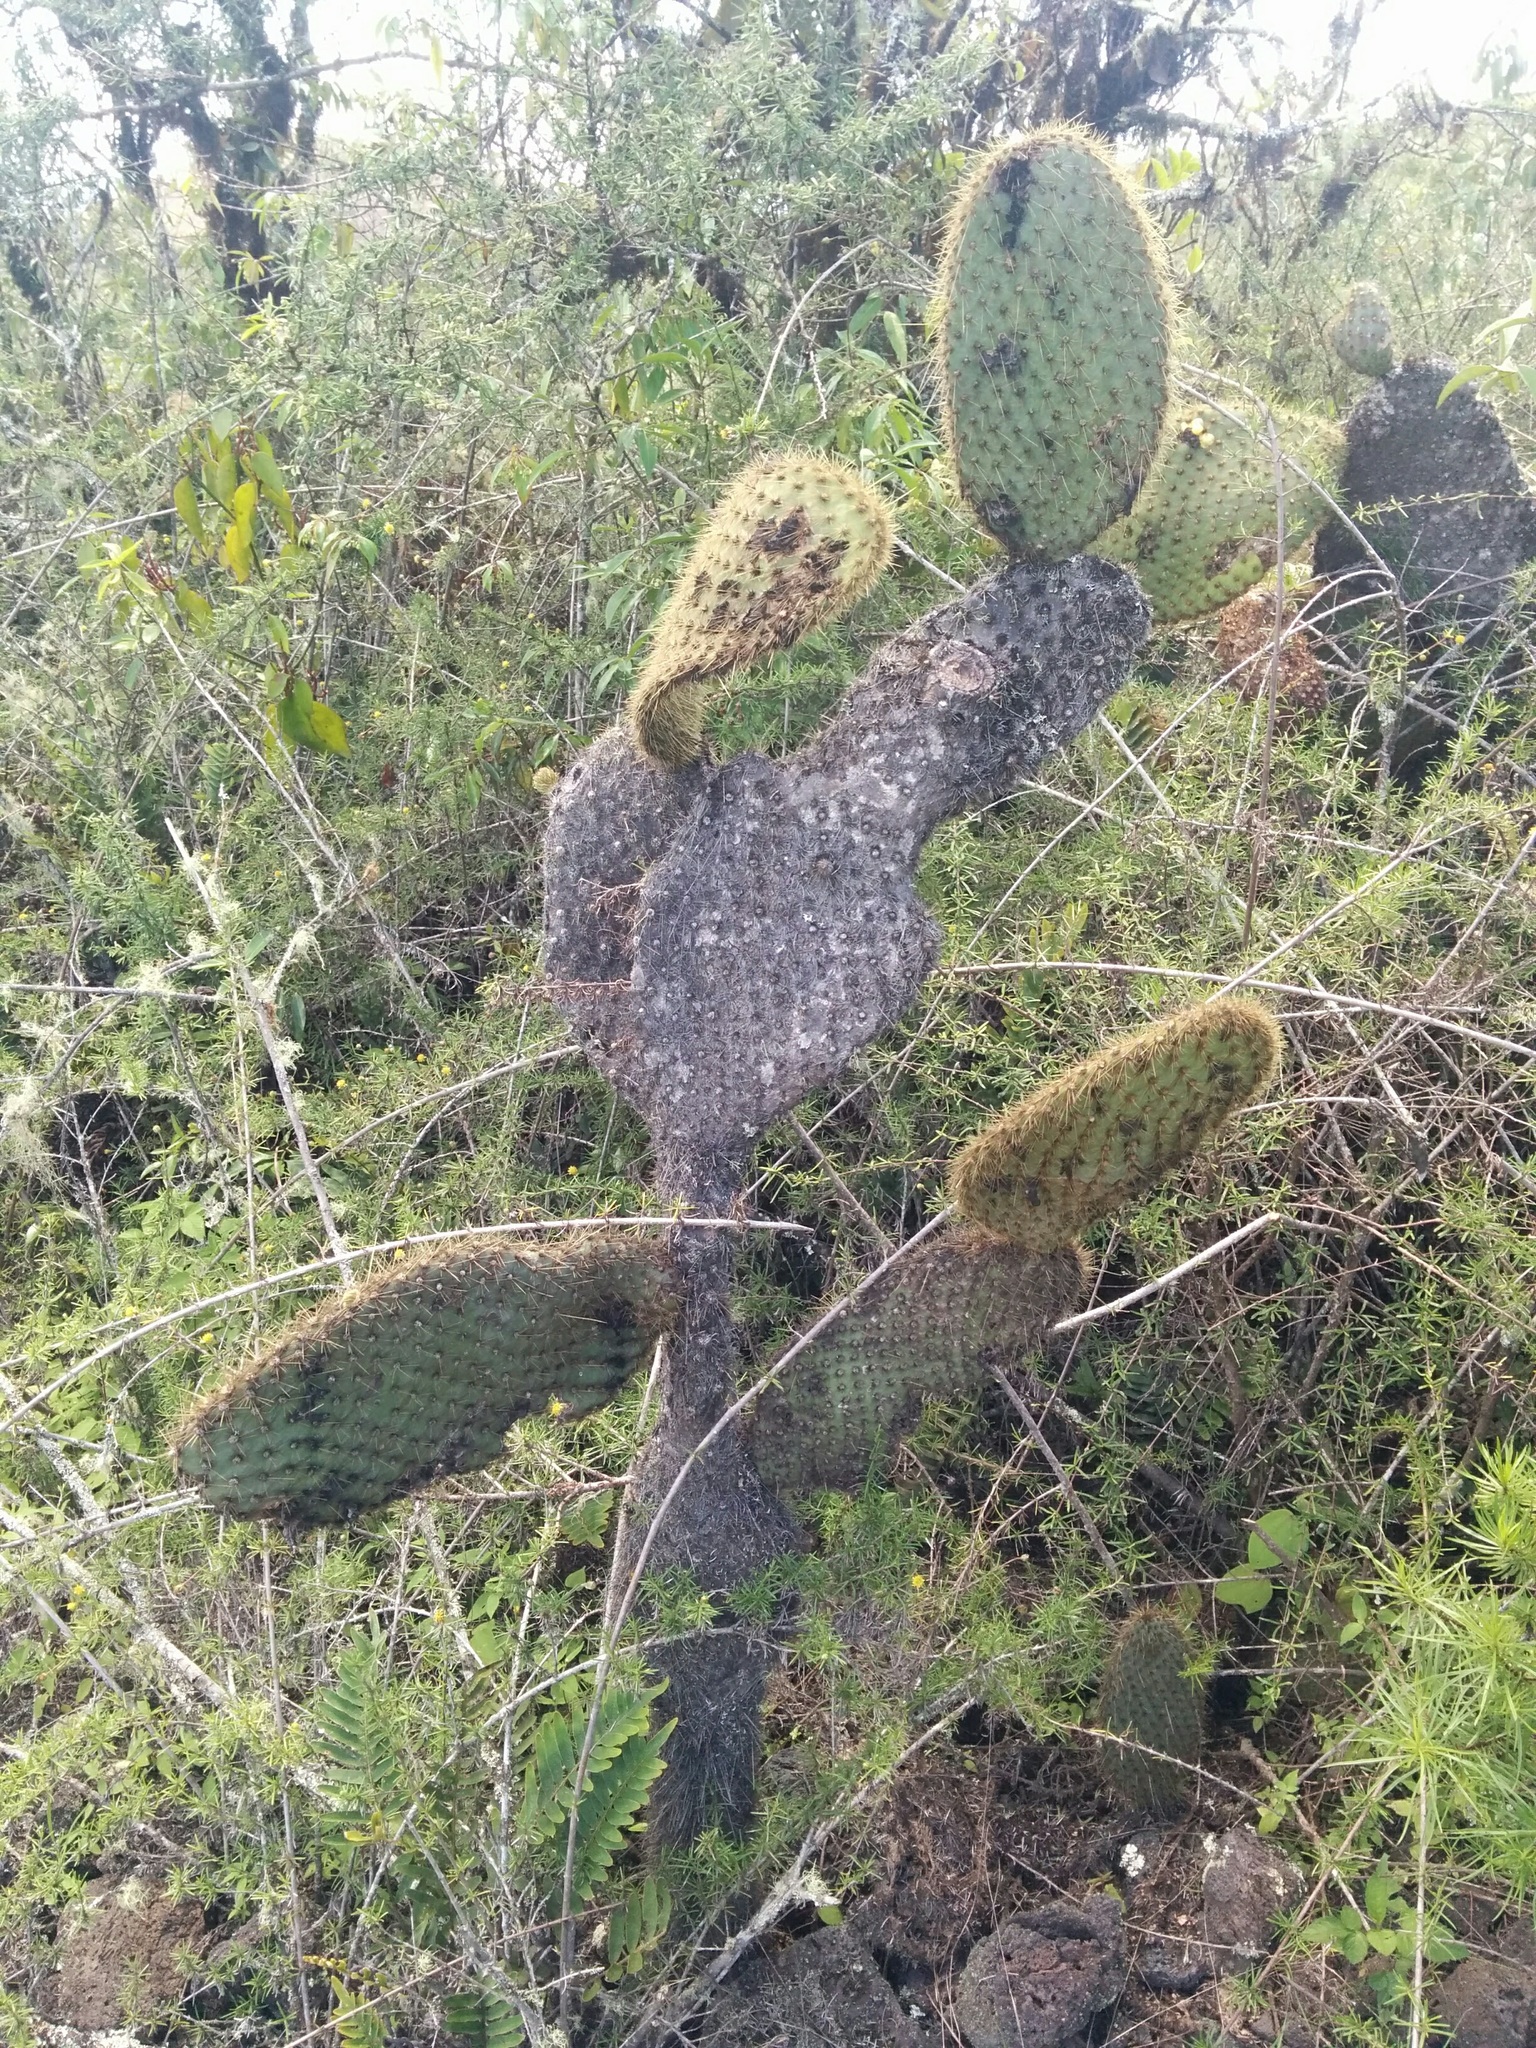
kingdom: Plantae
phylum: Tracheophyta
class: Magnoliopsida
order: Caryophyllales
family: Cactaceae
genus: Opuntia
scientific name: Opuntia galapageia
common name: Galápagos prickly pear
